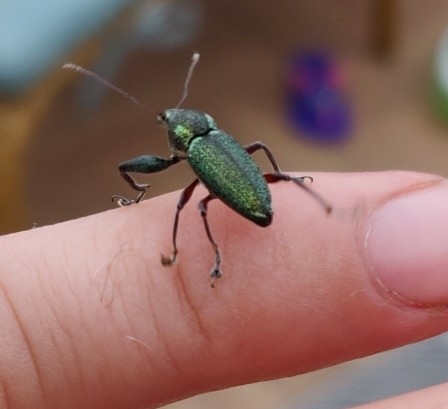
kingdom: Animalia
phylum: Arthropoda
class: Insecta
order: Coleoptera
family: Curculionidae
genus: Naupactus
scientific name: Naupactus auricinctus
